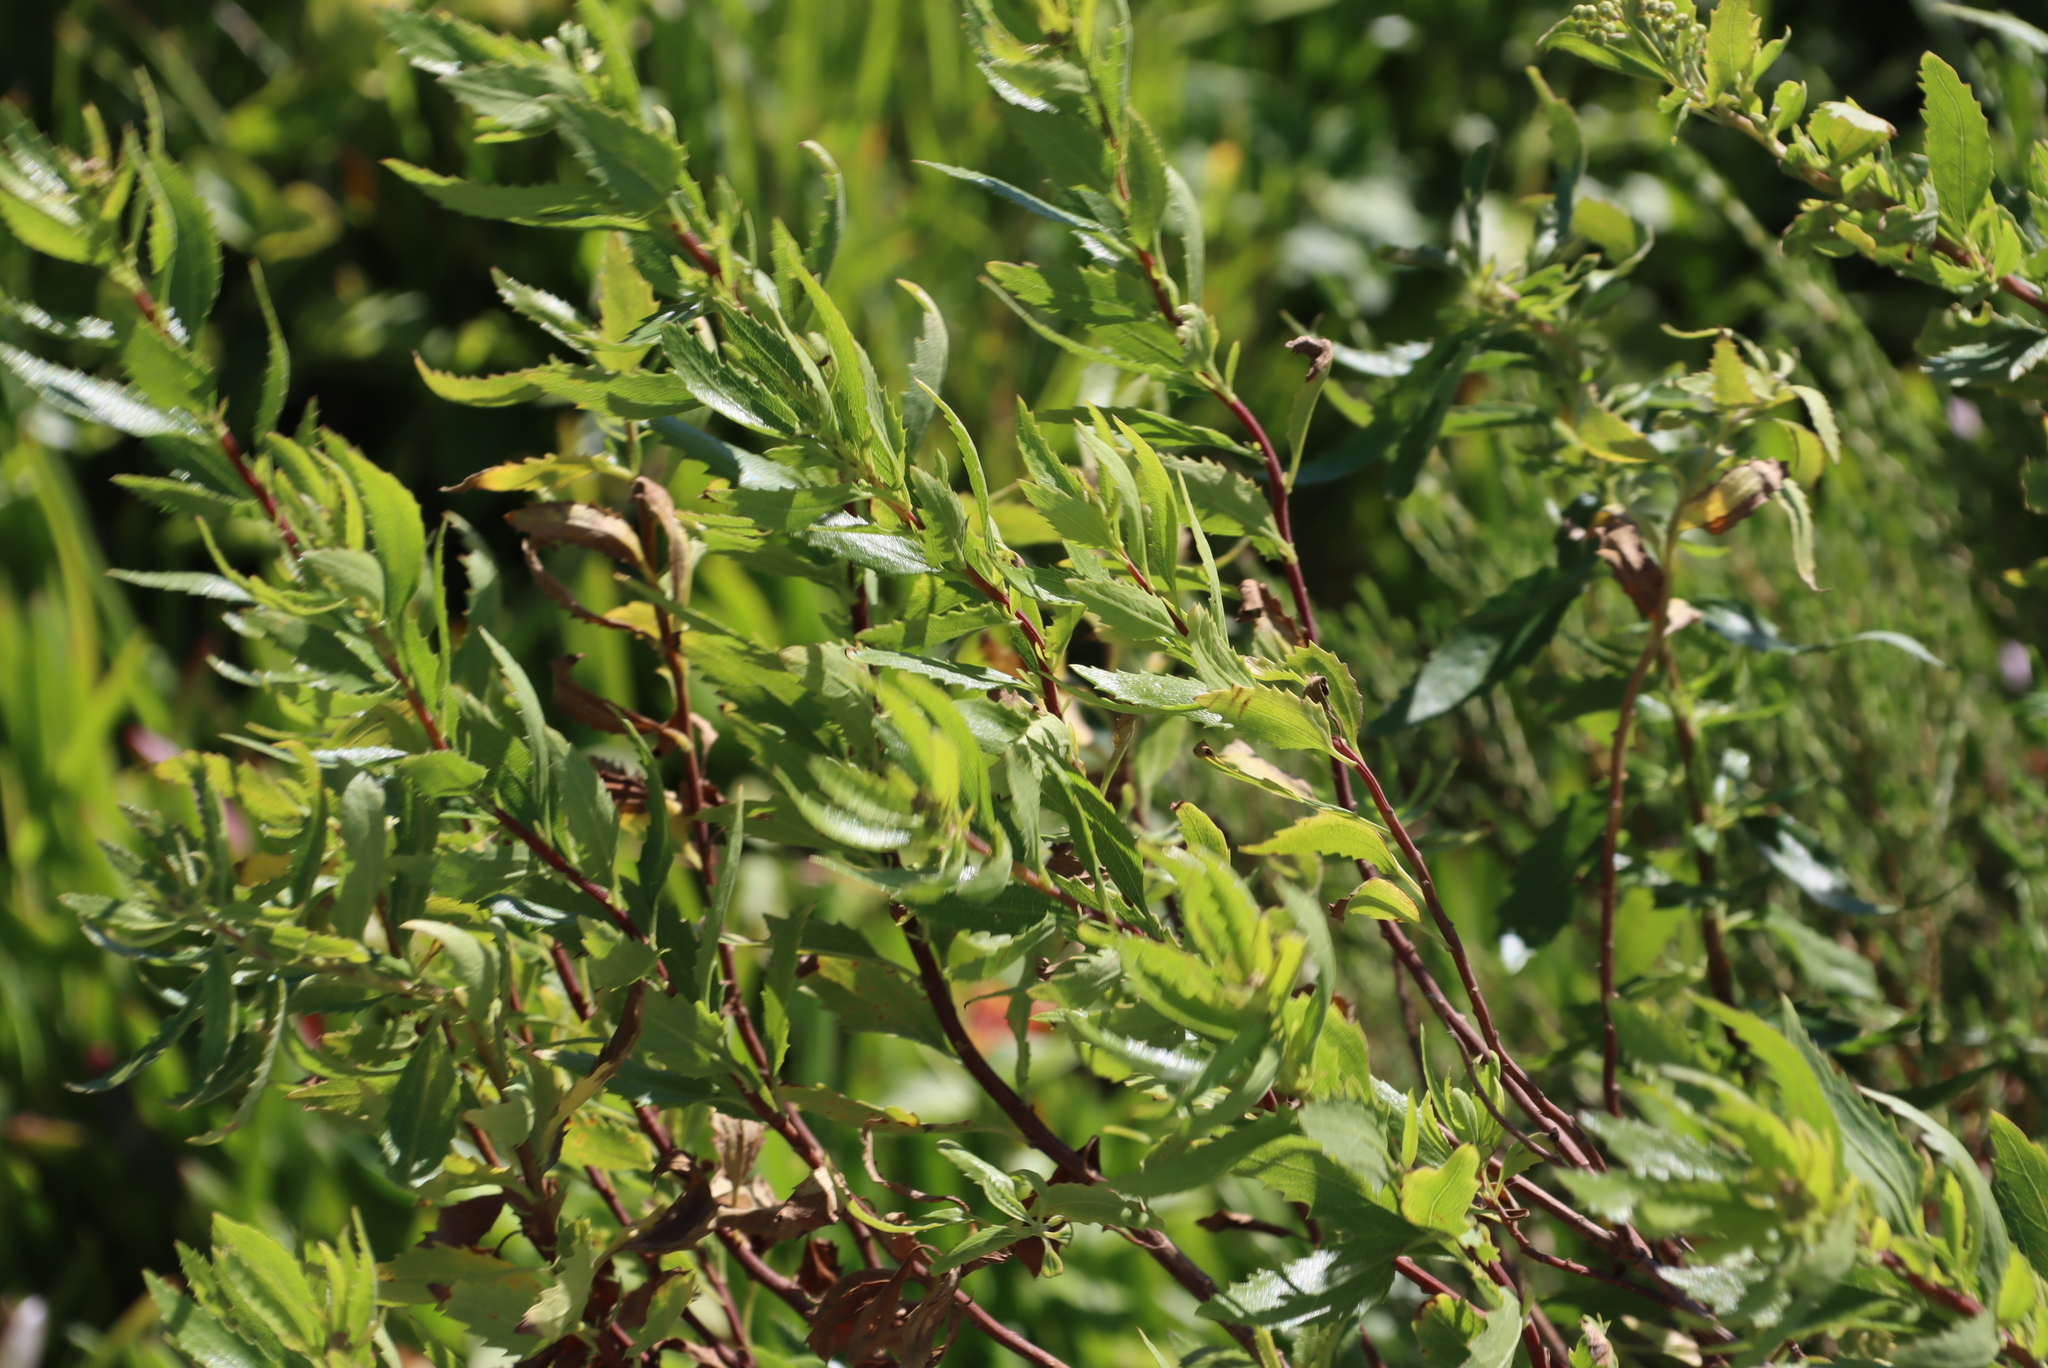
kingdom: Plantae
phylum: Tracheophyta
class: Magnoliopsida
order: Asterales
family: Asteraceae
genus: Nidorella
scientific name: Nidorella ivifolia
